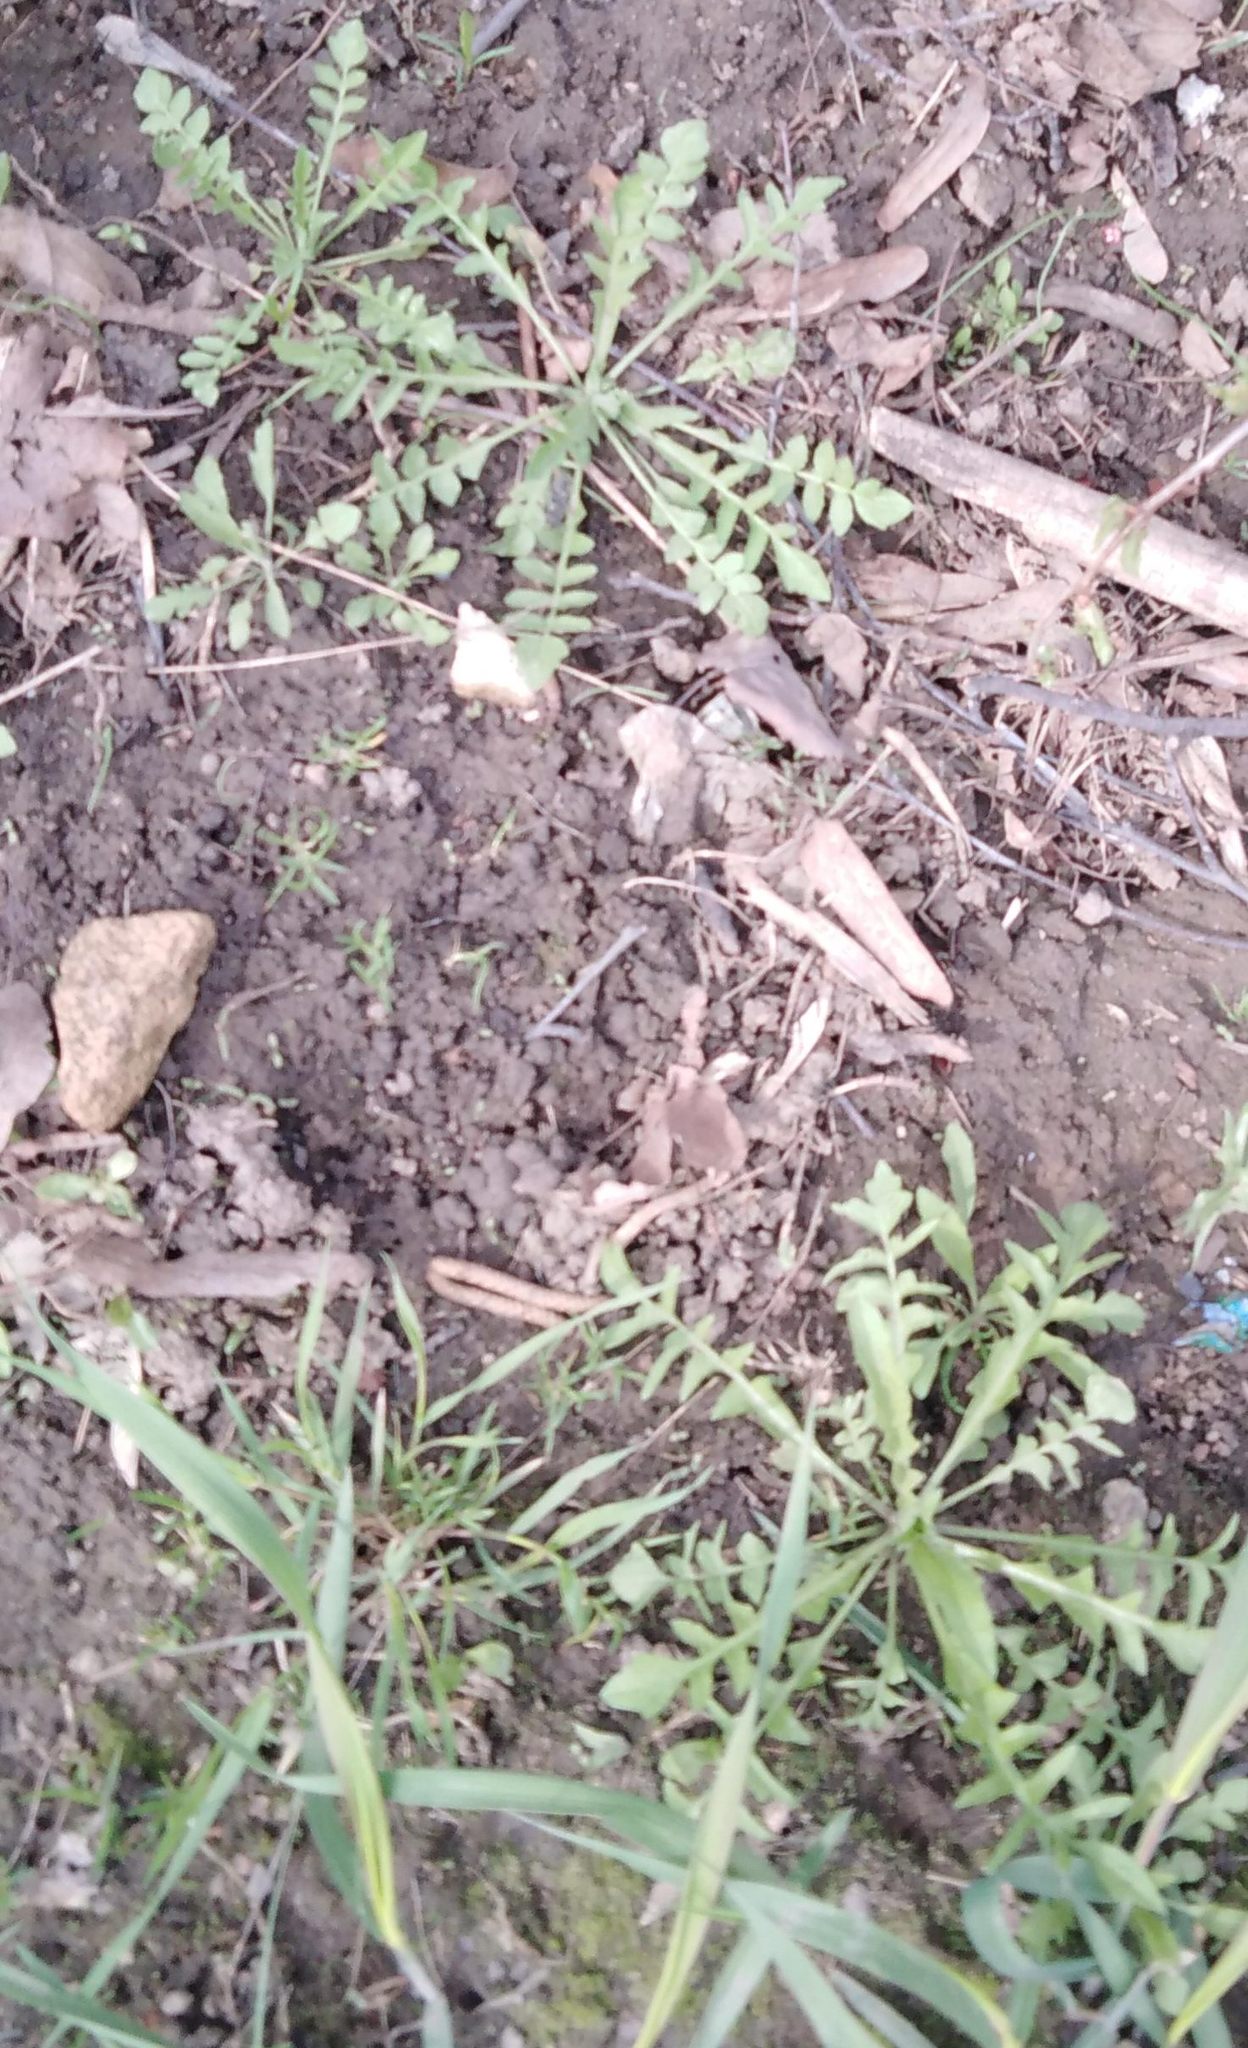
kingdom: Plantae
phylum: Tracheophyta
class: Magnoliopsida
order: Brassicales
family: Brassicaceae
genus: Capsella
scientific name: Capsella bursa-pastoris
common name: Shepherd's purse
